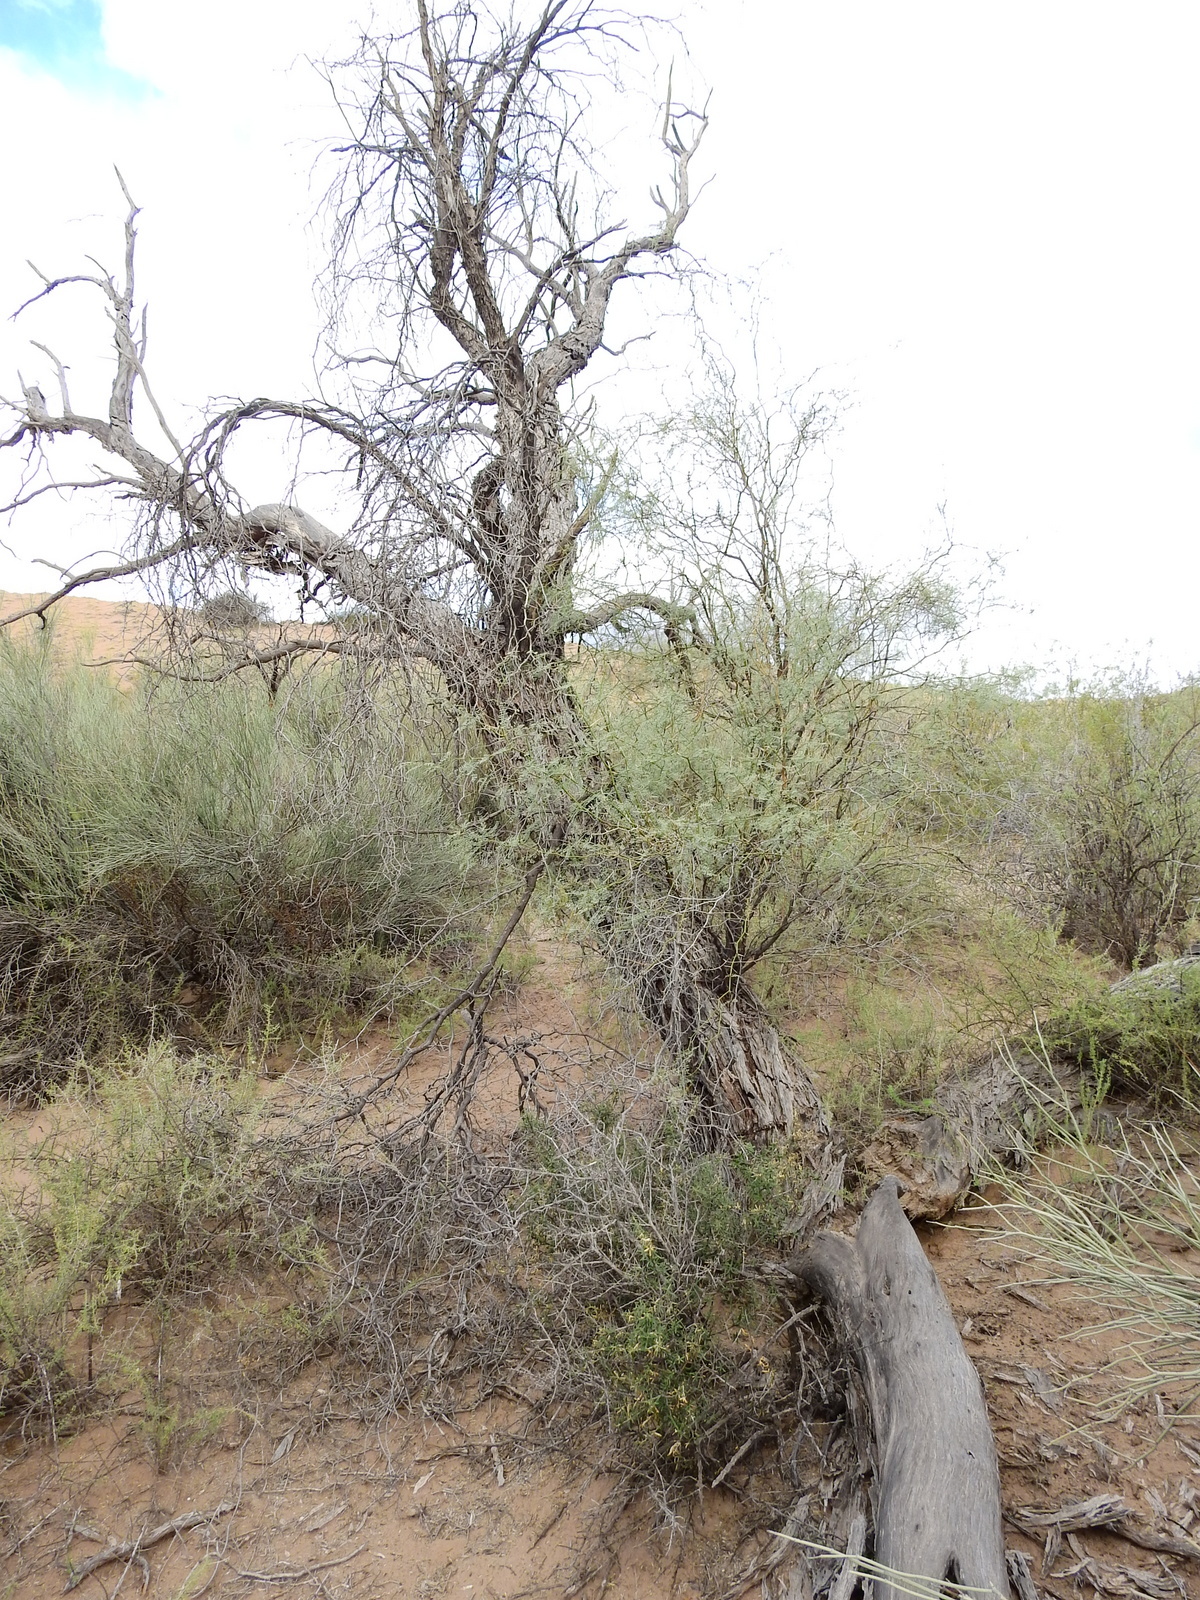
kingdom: Plantae
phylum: Tracheophyta
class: Magnoliopsida
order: Fabales
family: Fabaceae
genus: Prosopis
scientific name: Prosopis flexuosa
